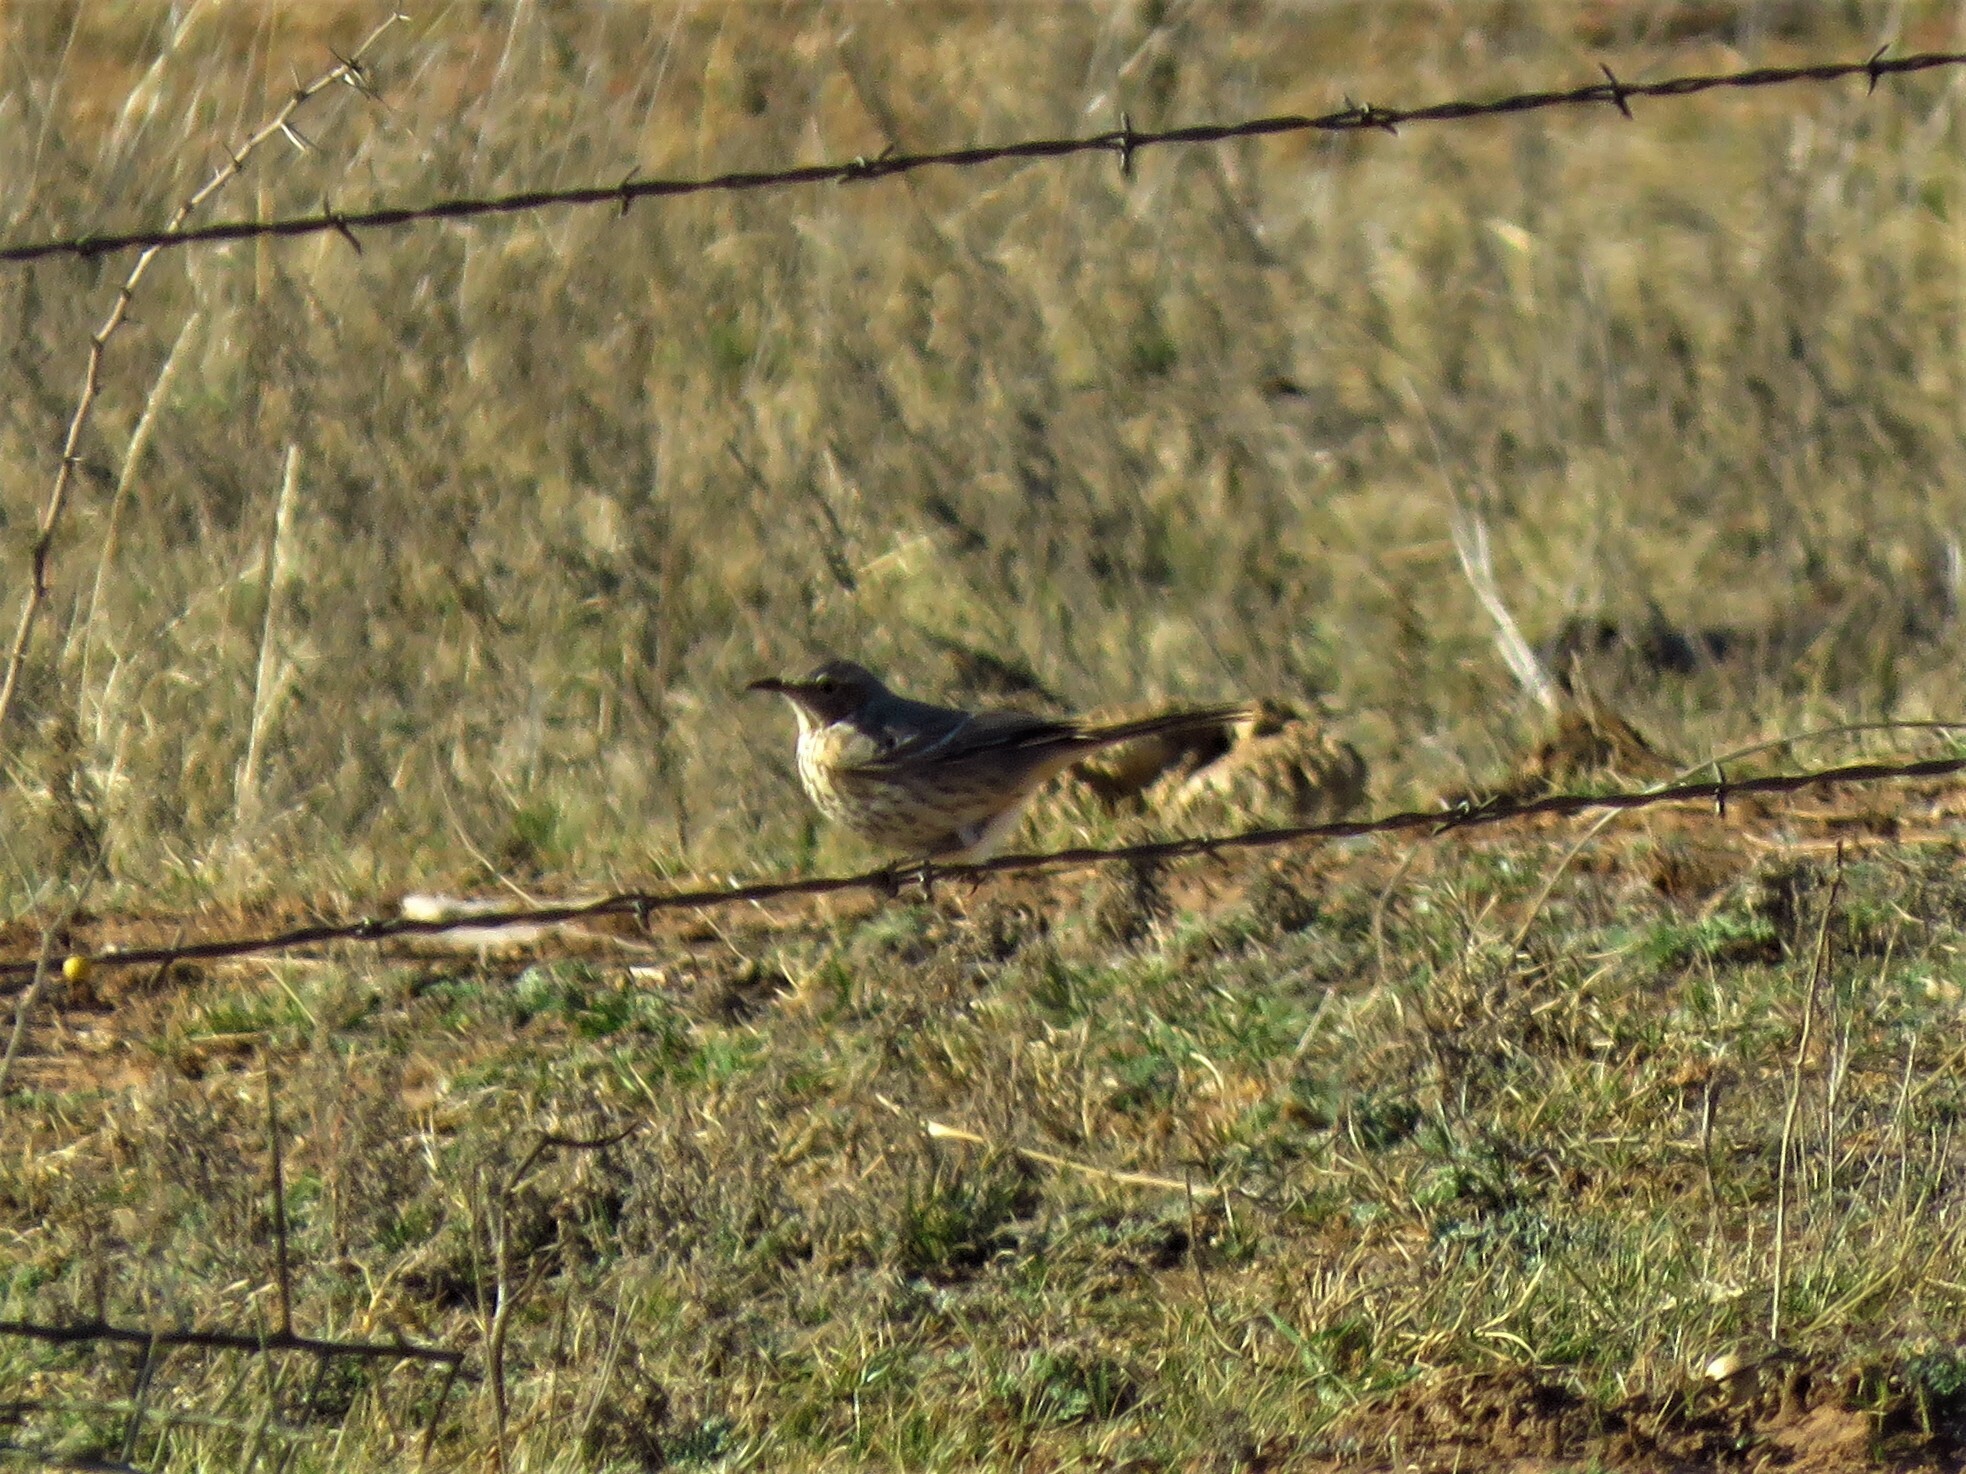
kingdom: Animalia
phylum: Chordata
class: Aves
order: Passeriformes
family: Mimidae
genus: Oreoscoptes
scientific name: Oreoscoptes montanus
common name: Sage thrasher
